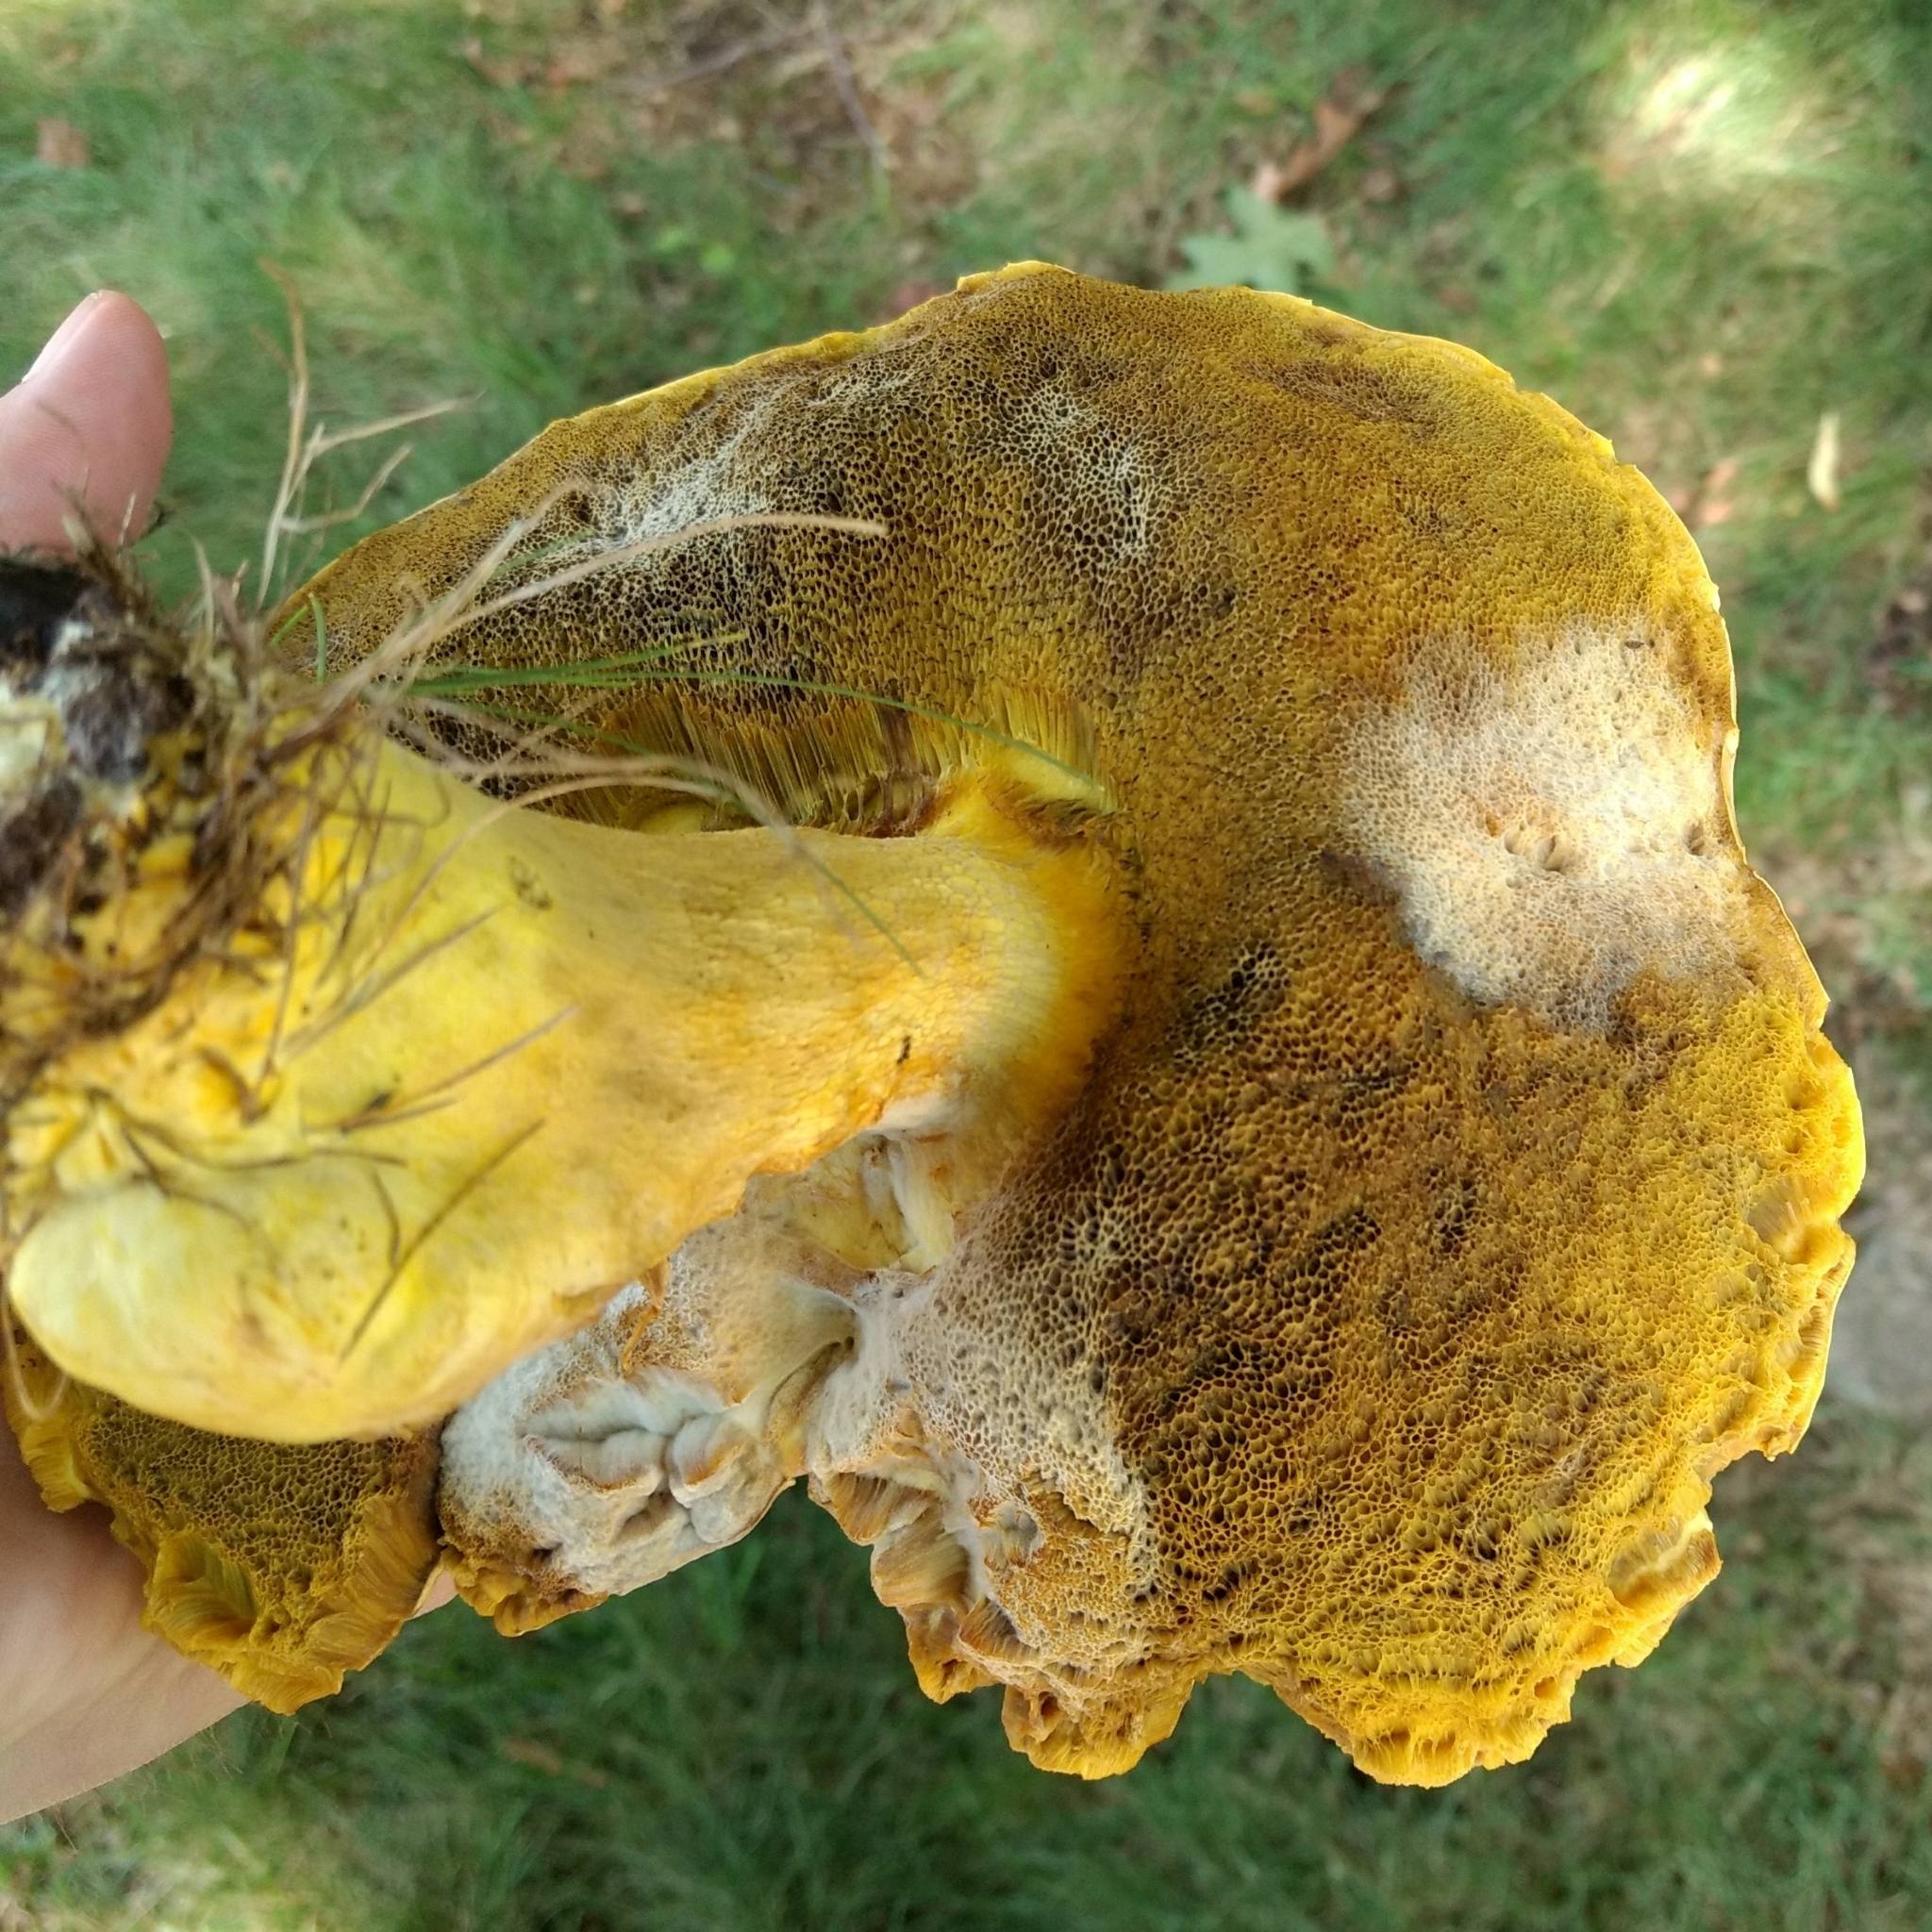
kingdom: Fungi
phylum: Basidiomycota
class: Agaricomycetes
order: Boletales
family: Boletaceae
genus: Boletus
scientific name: Boletus auripes
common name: Butter-foot bolete
